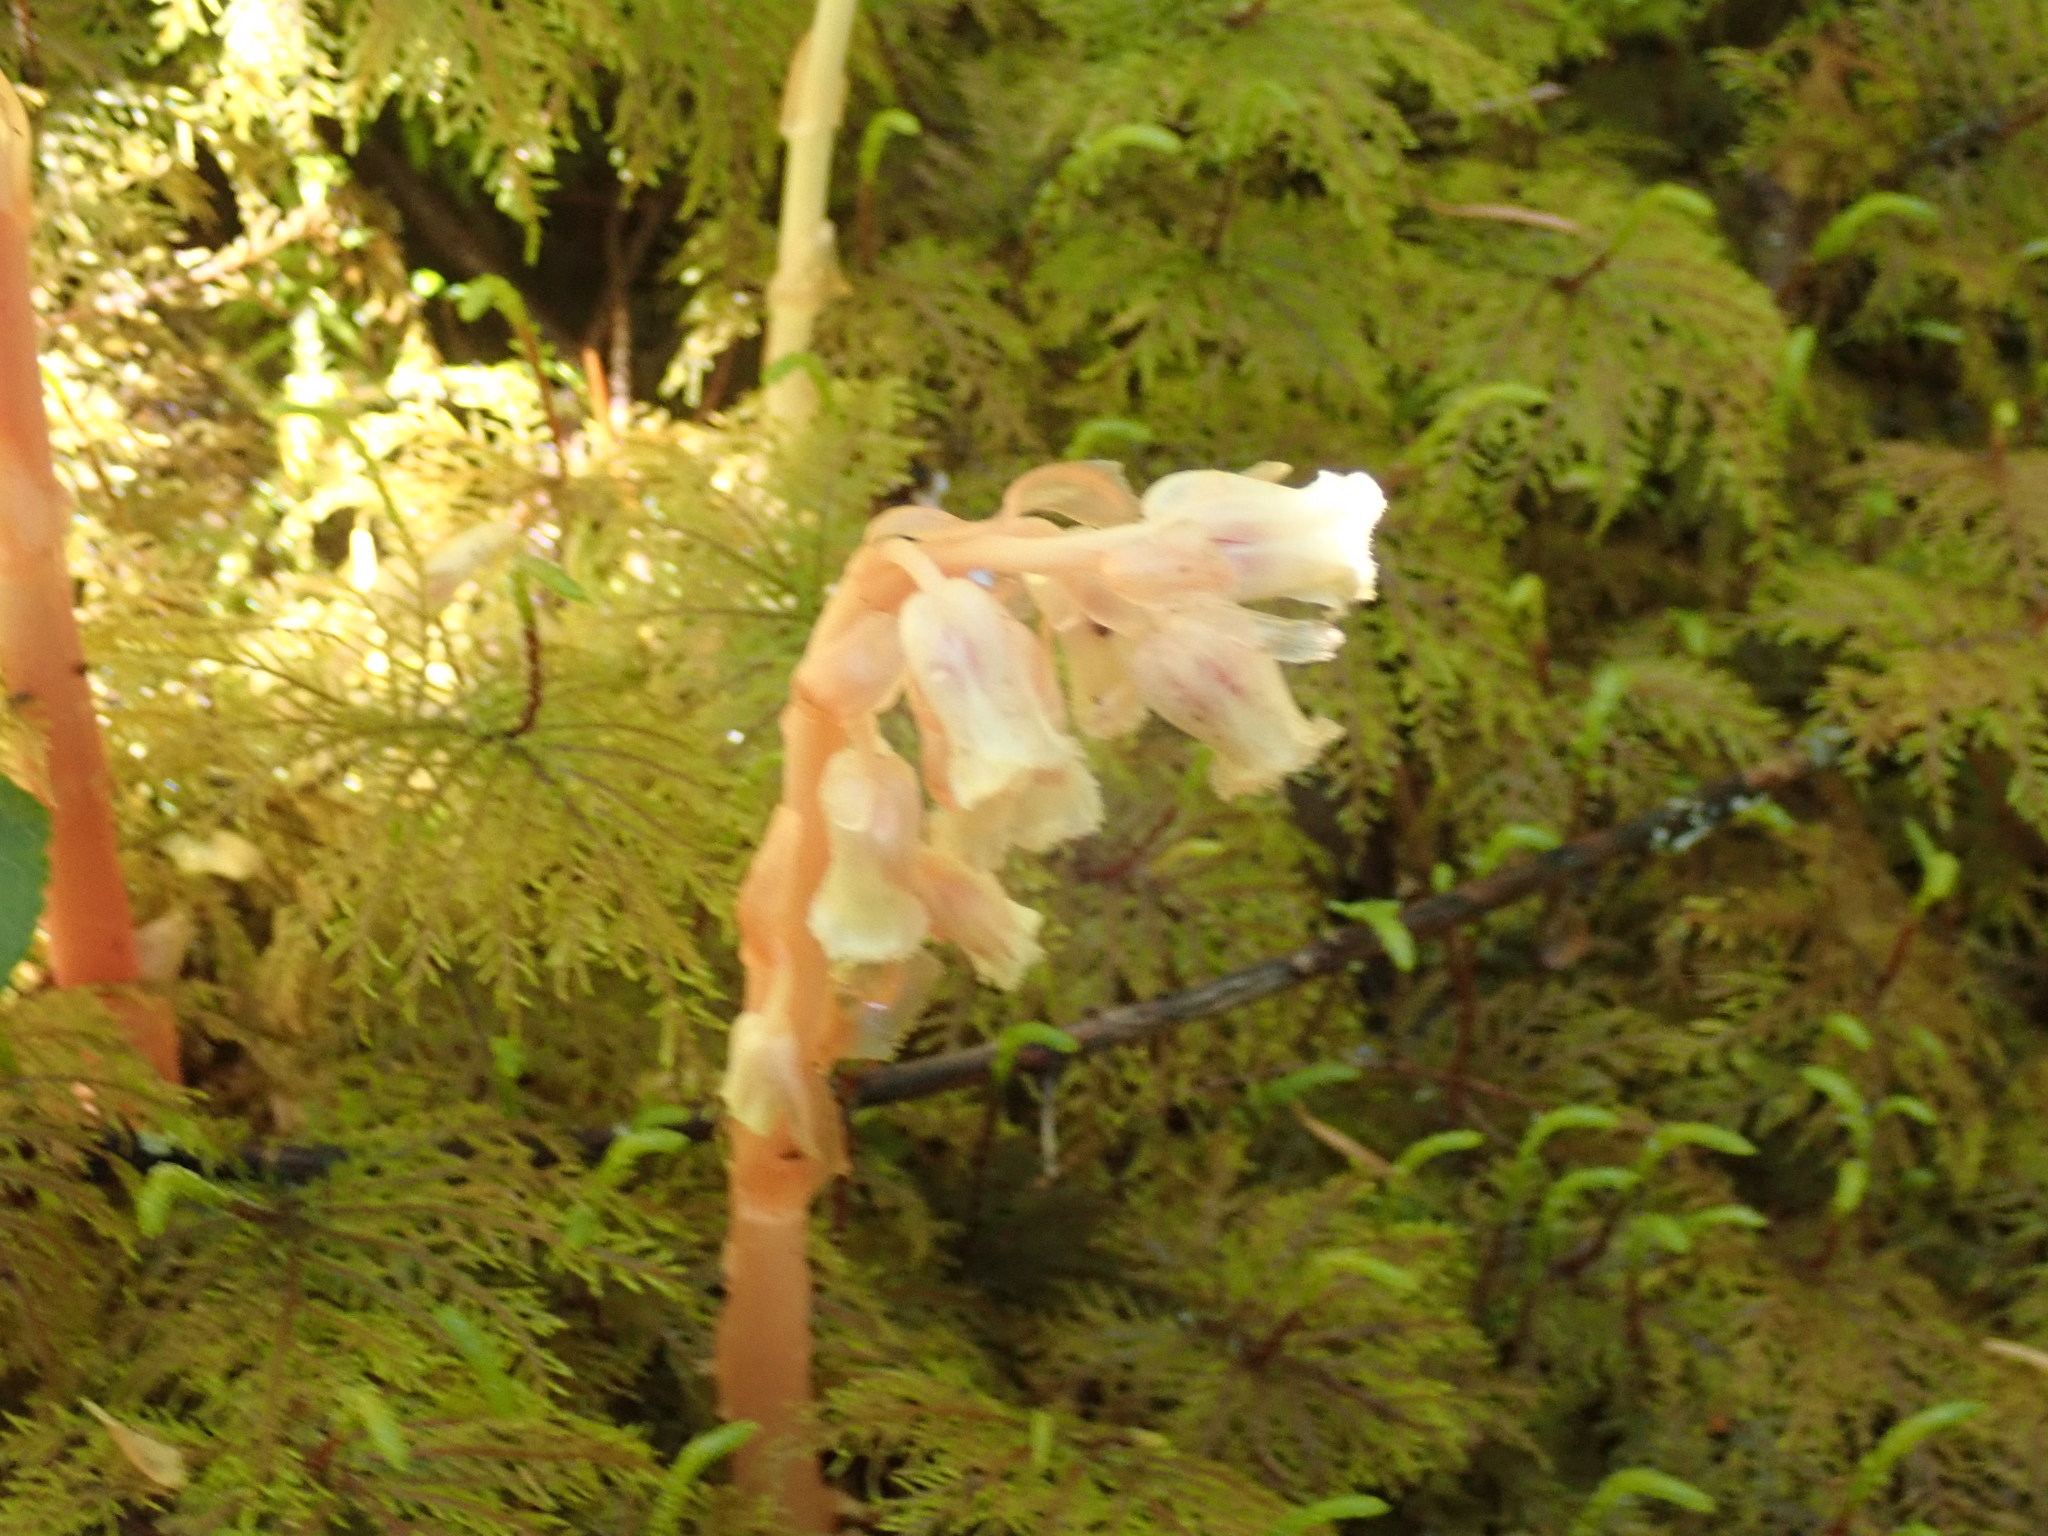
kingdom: Plantae
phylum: Tracheophyta
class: Magnoliopsida
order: Ericales
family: Ericaceae
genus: Hypopitys
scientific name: Hypopitys monotropa
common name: Yellow bird's-nest
